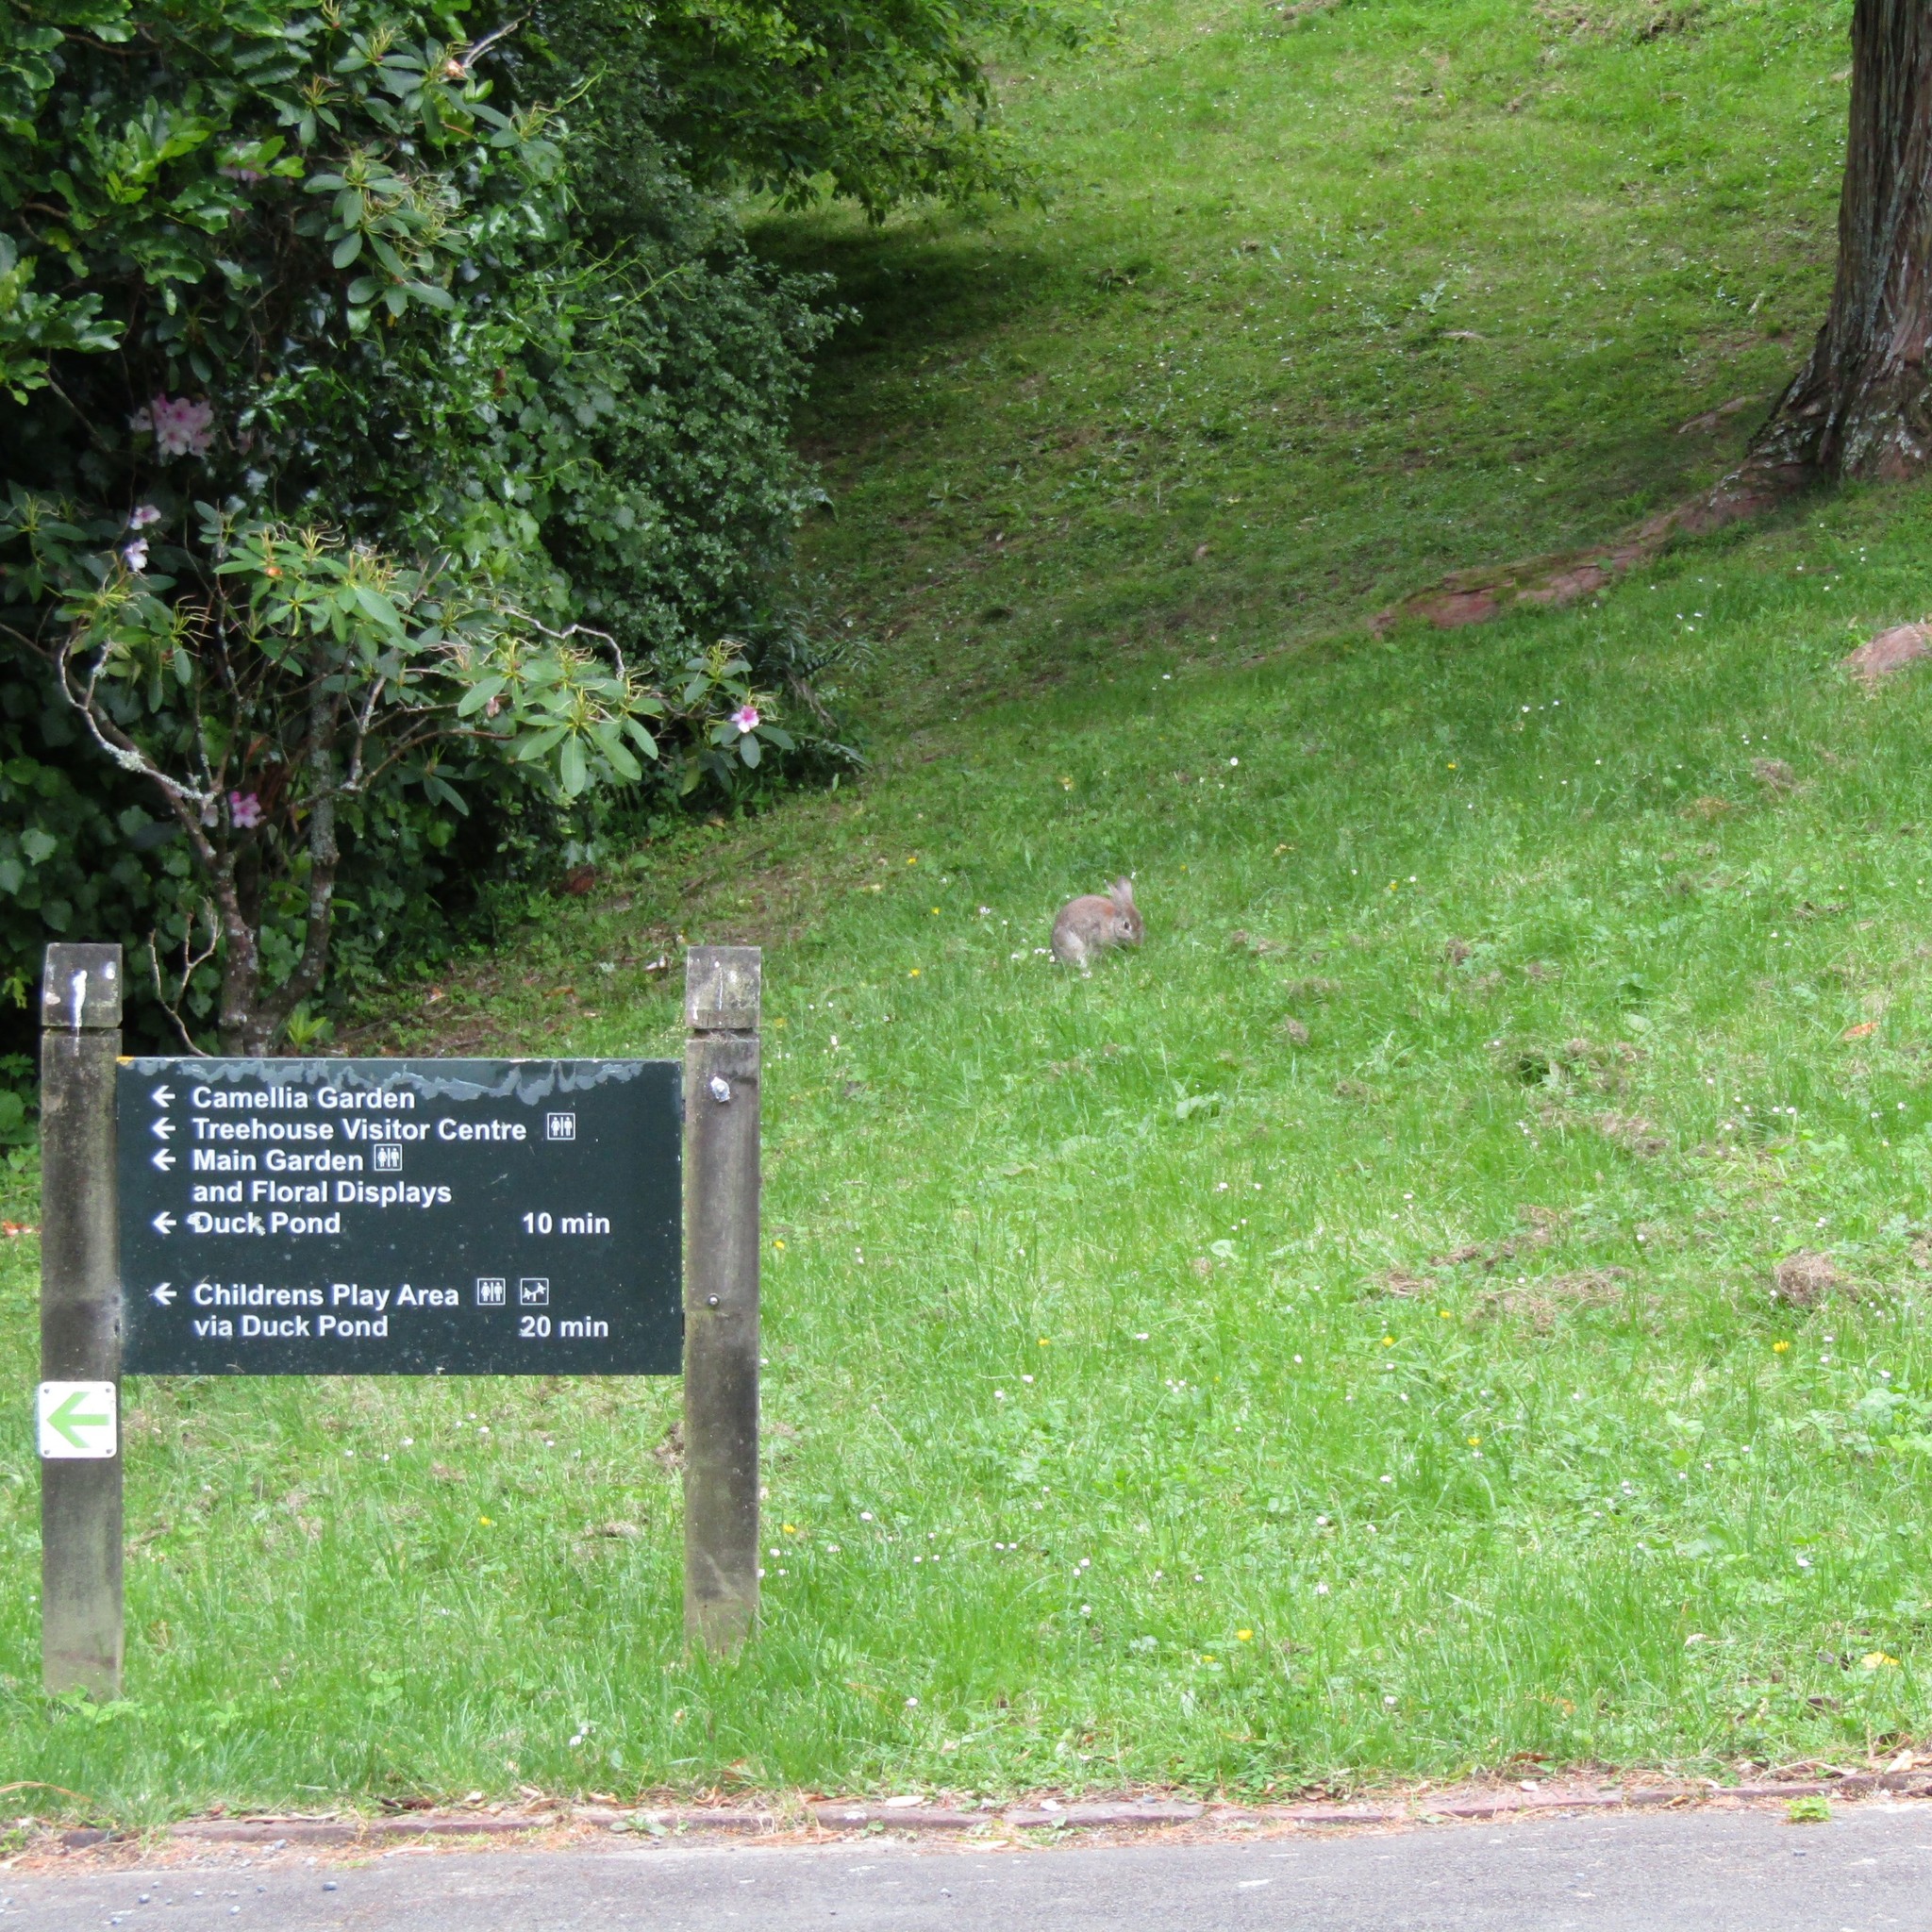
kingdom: Animalia
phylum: Chordata
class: Mammalia
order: Lagomorpha
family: Leporidae
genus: Oryctolagus
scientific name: Oryctolagus cuniculus
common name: European rabbit
